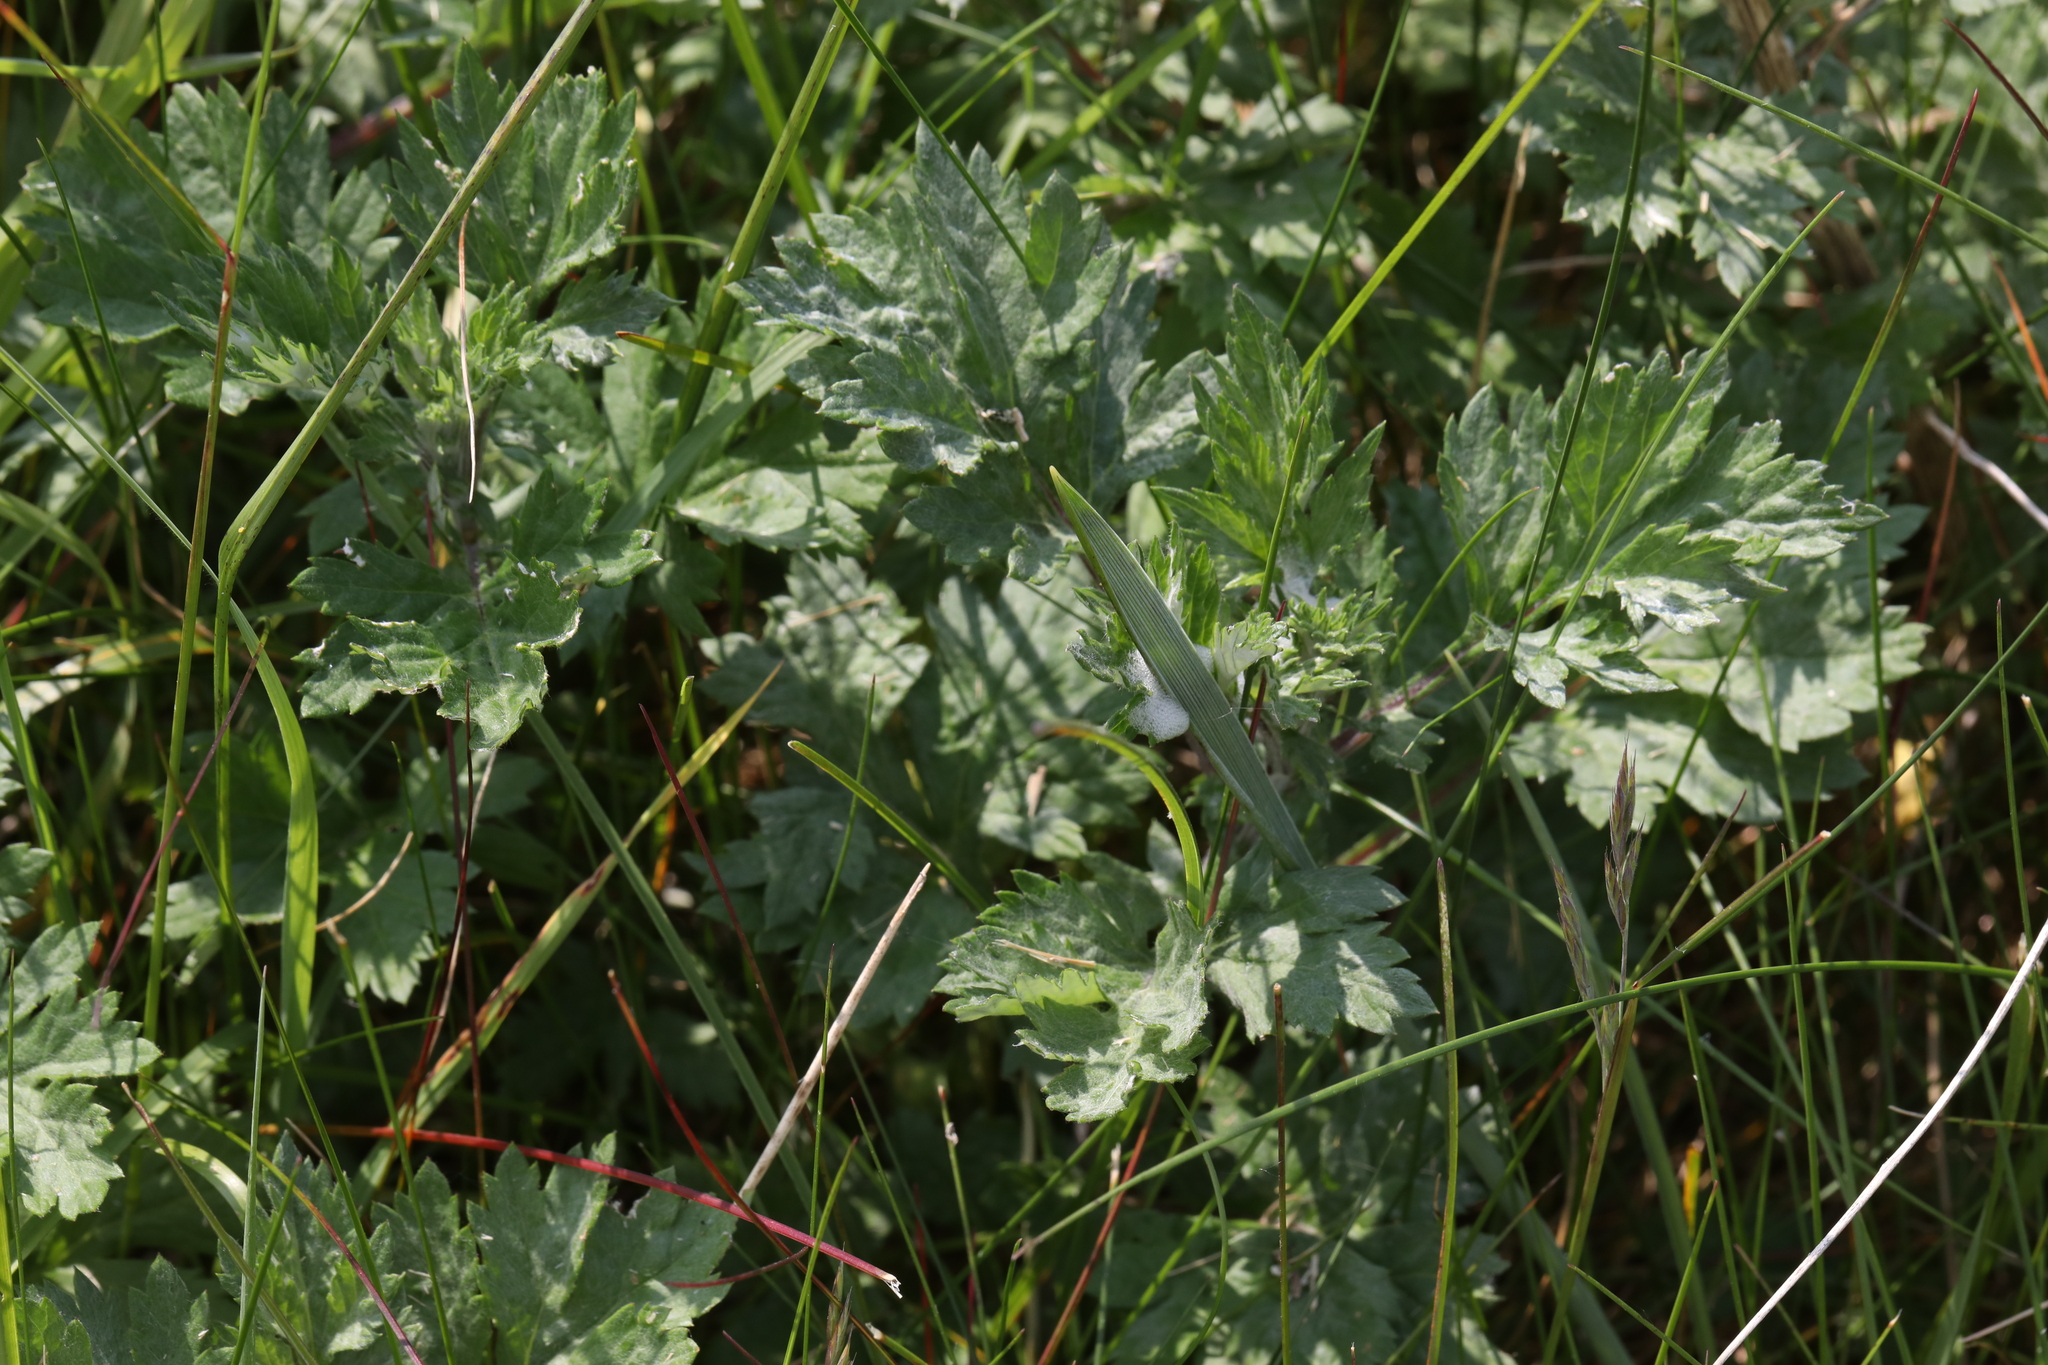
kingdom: Plantae
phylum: Tracheophyta
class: Magnoliopsida
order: Asterales
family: Asteraceae
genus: Artemisia
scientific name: Artemisia vulgaris
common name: Mugwort
